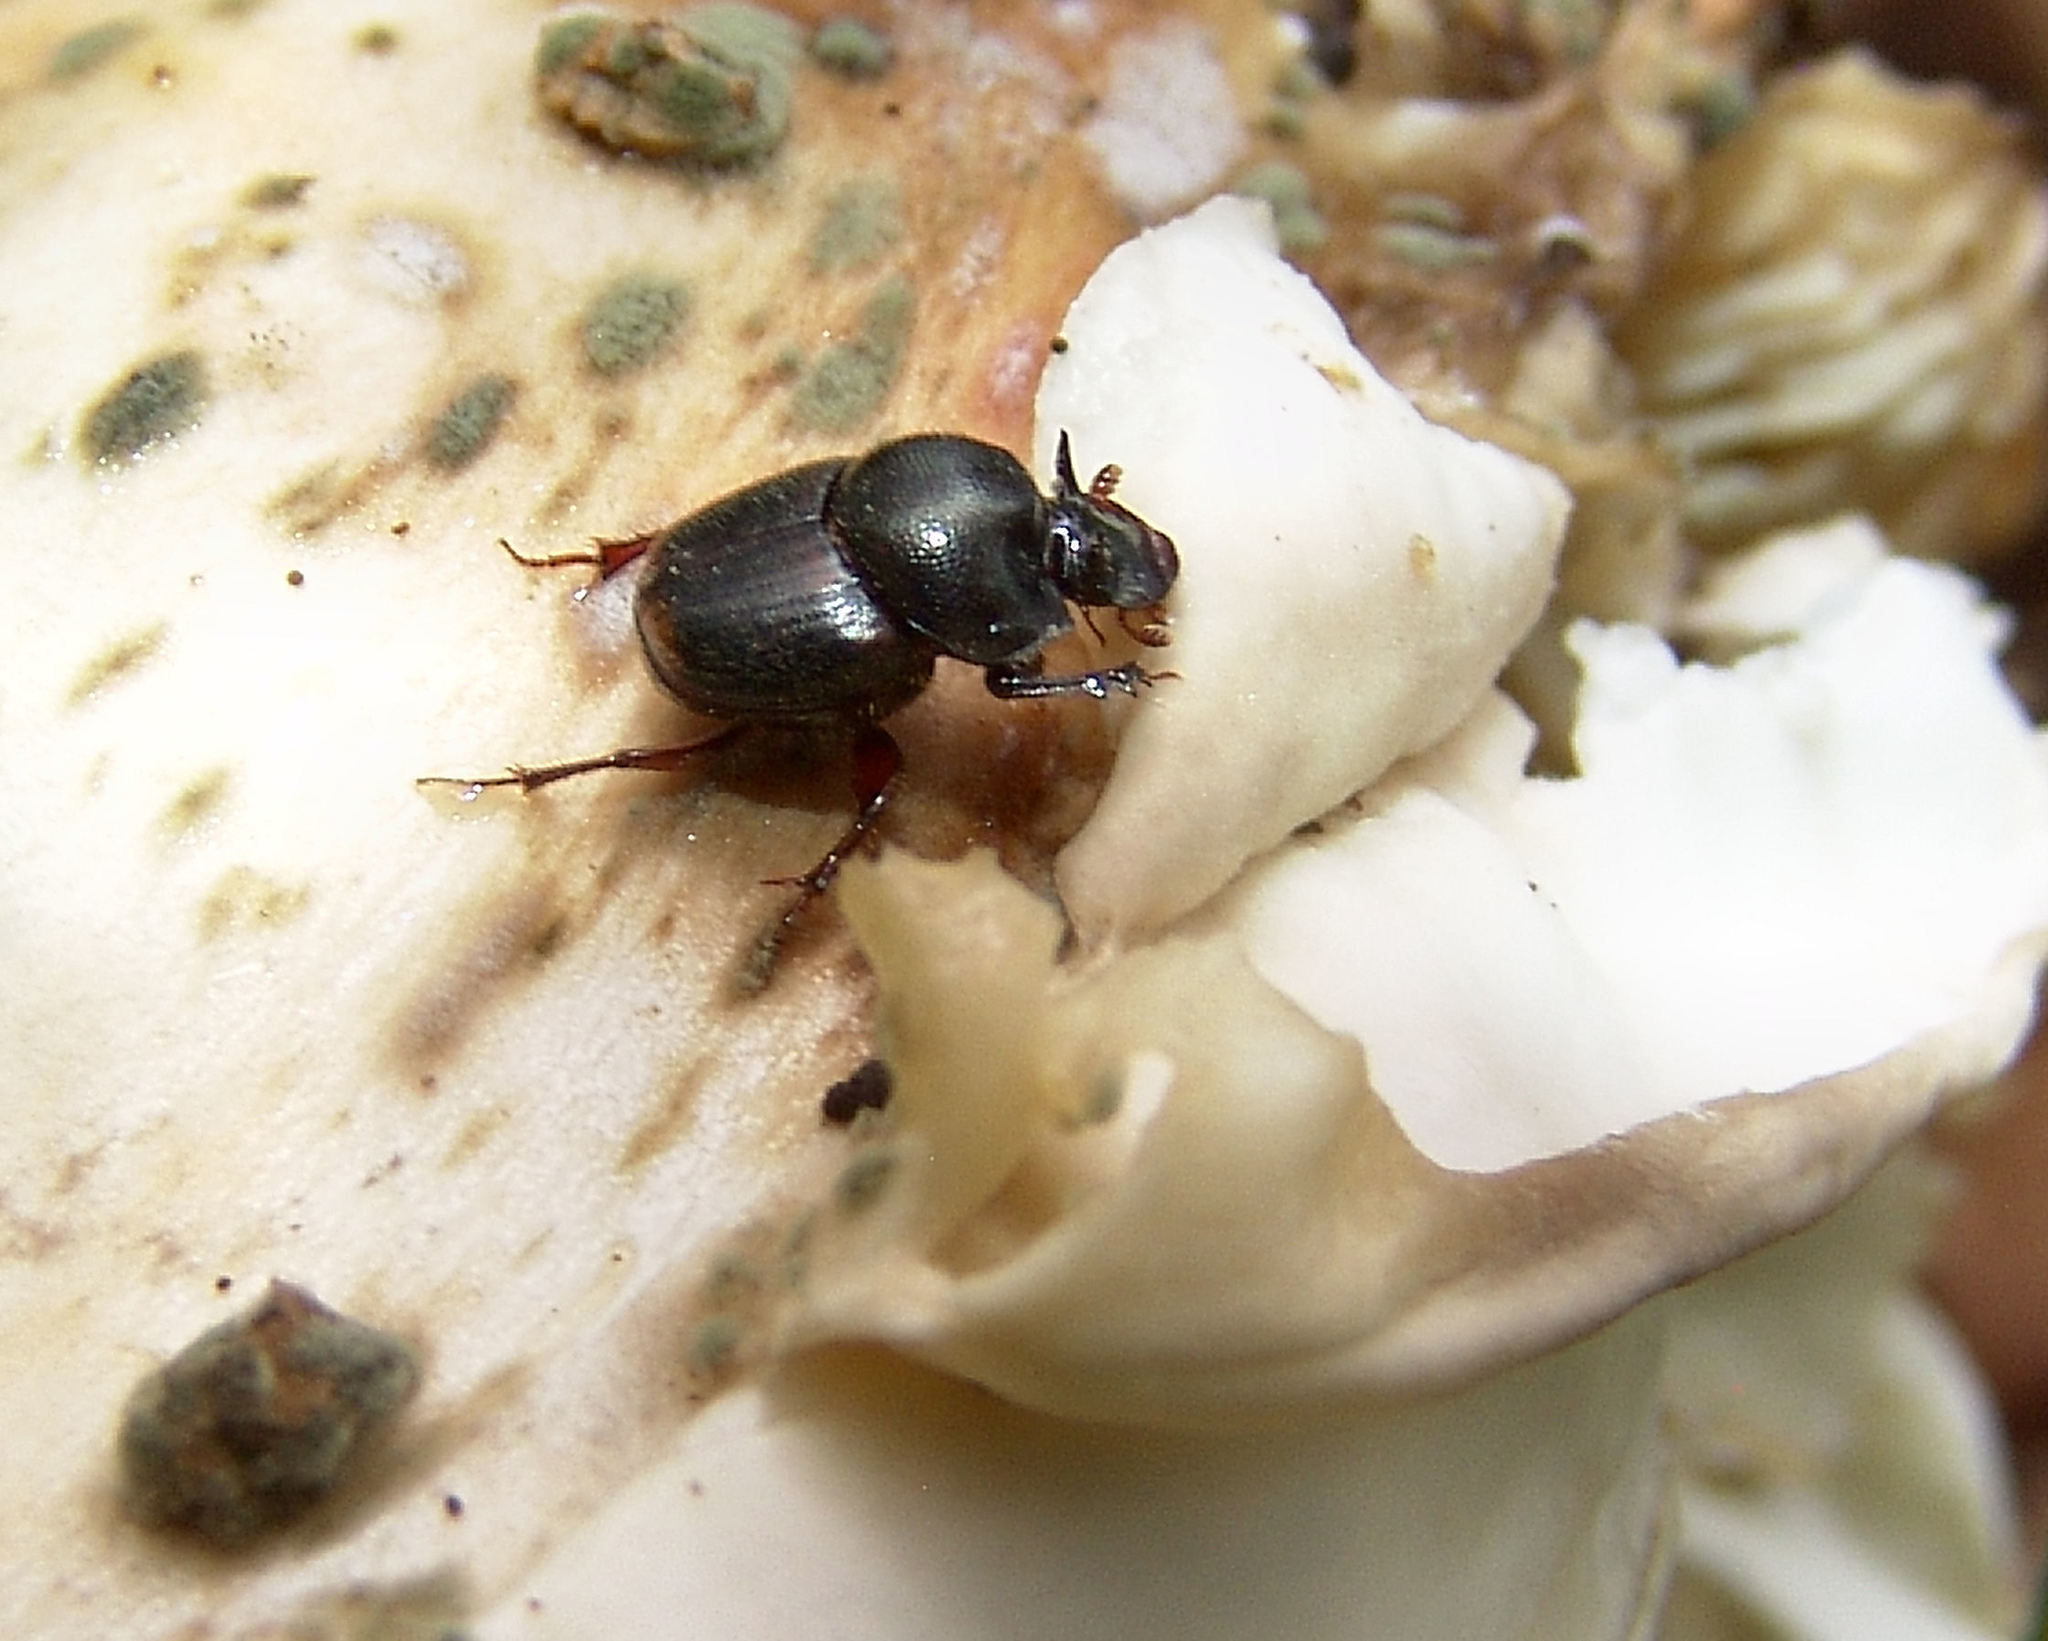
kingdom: Animalia
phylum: Arthropoda
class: Insecta
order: Coleoptera
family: Scarabaeidae
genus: Onthophagus
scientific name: Onthophagus striatulus
